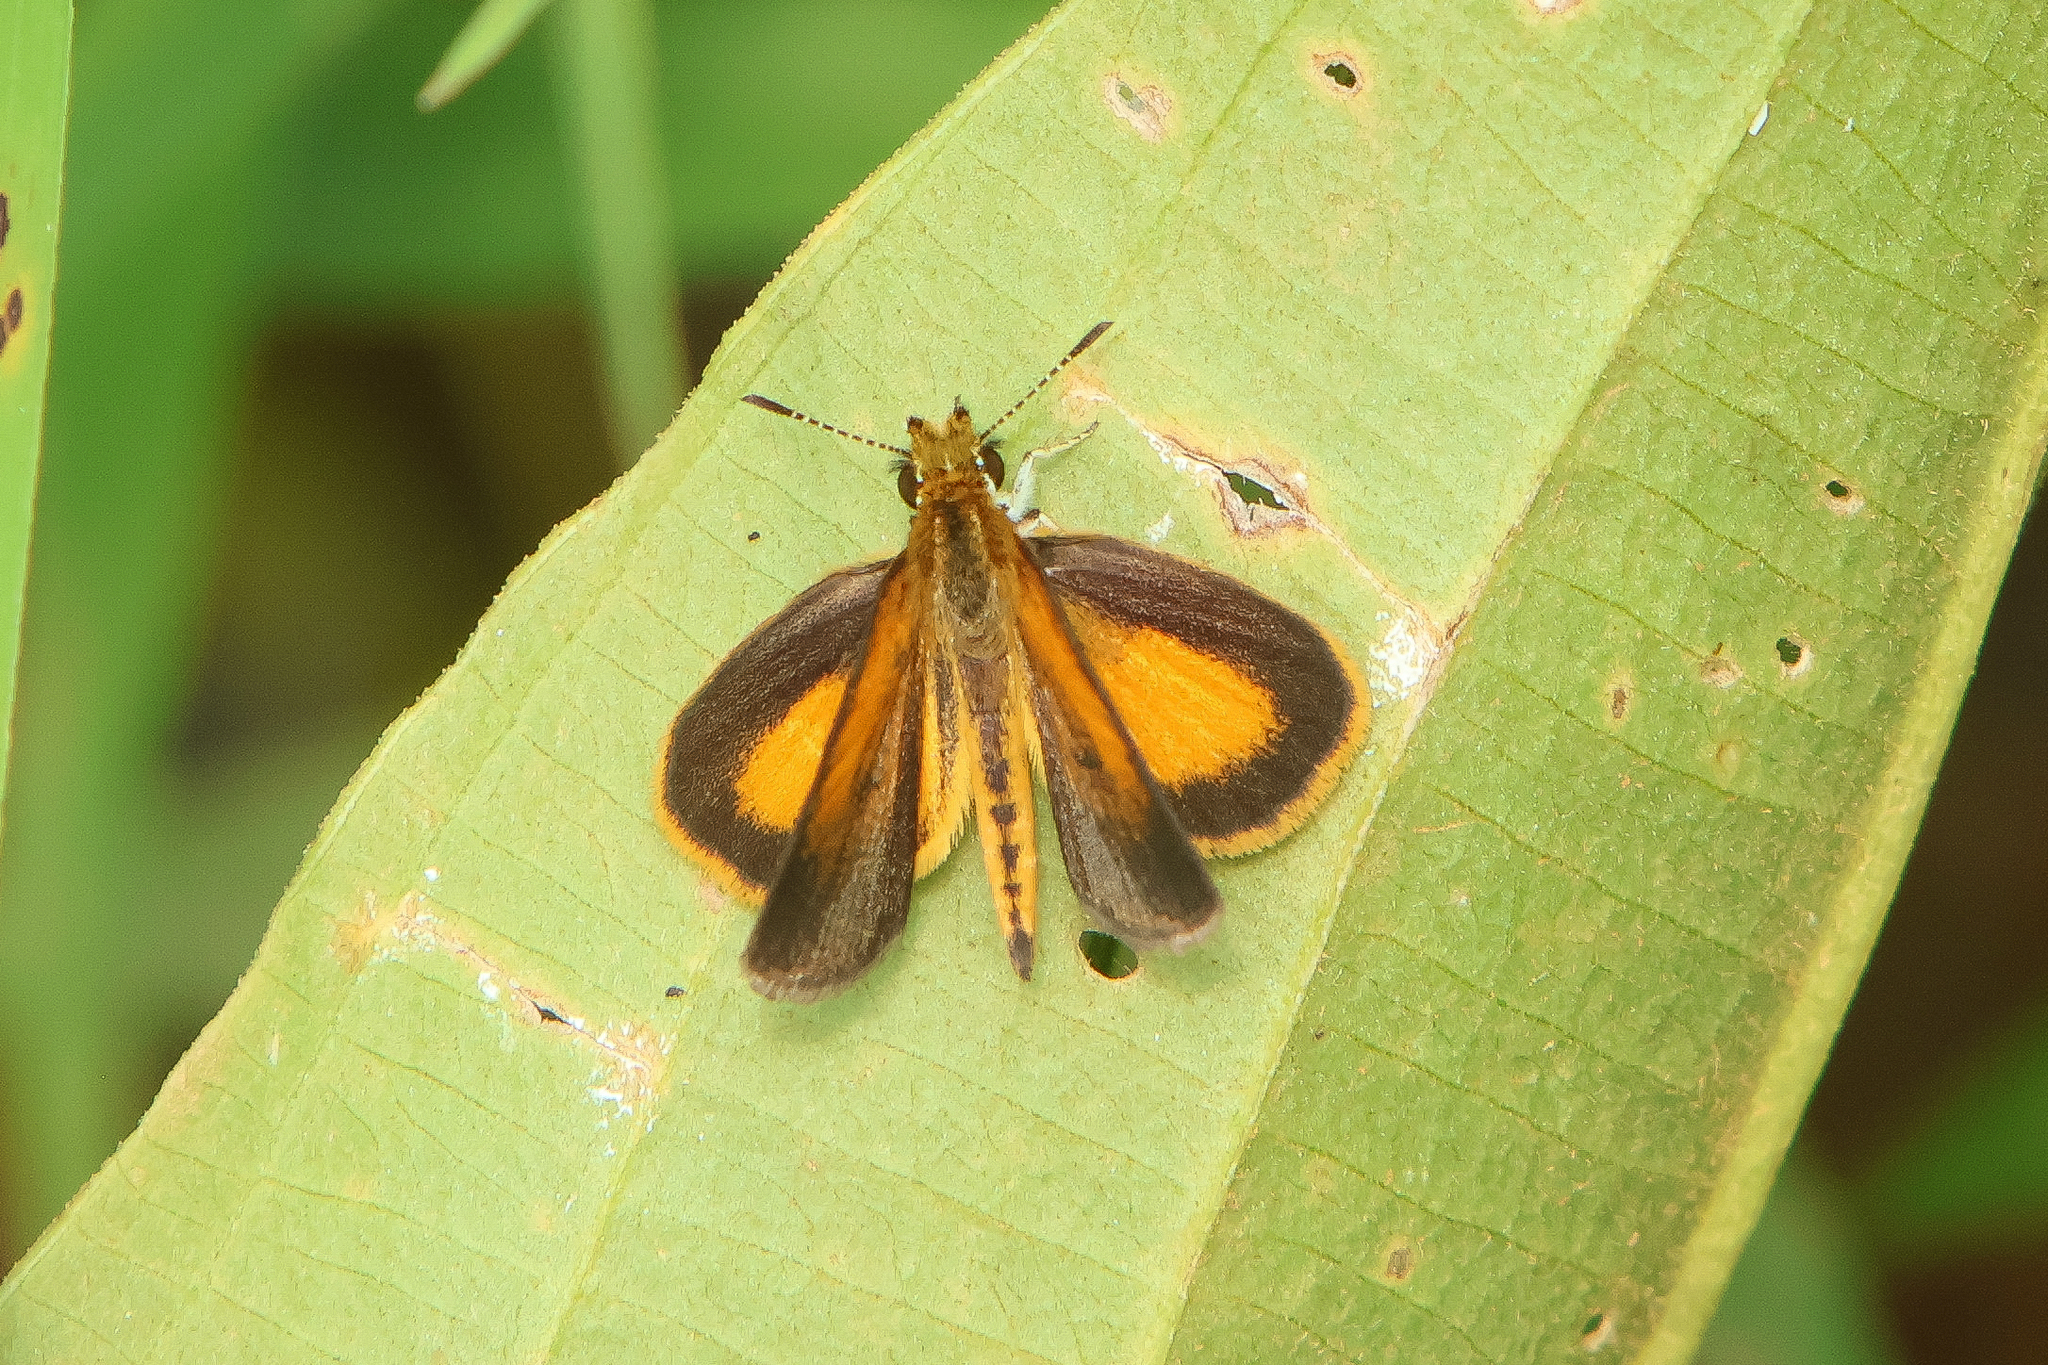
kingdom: Animalia
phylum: Arthropoda
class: Insecta
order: Lepidoptera
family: Hesperiidae
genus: Ancyloxypha
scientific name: Ancyloxypha numitor
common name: Least skipper
